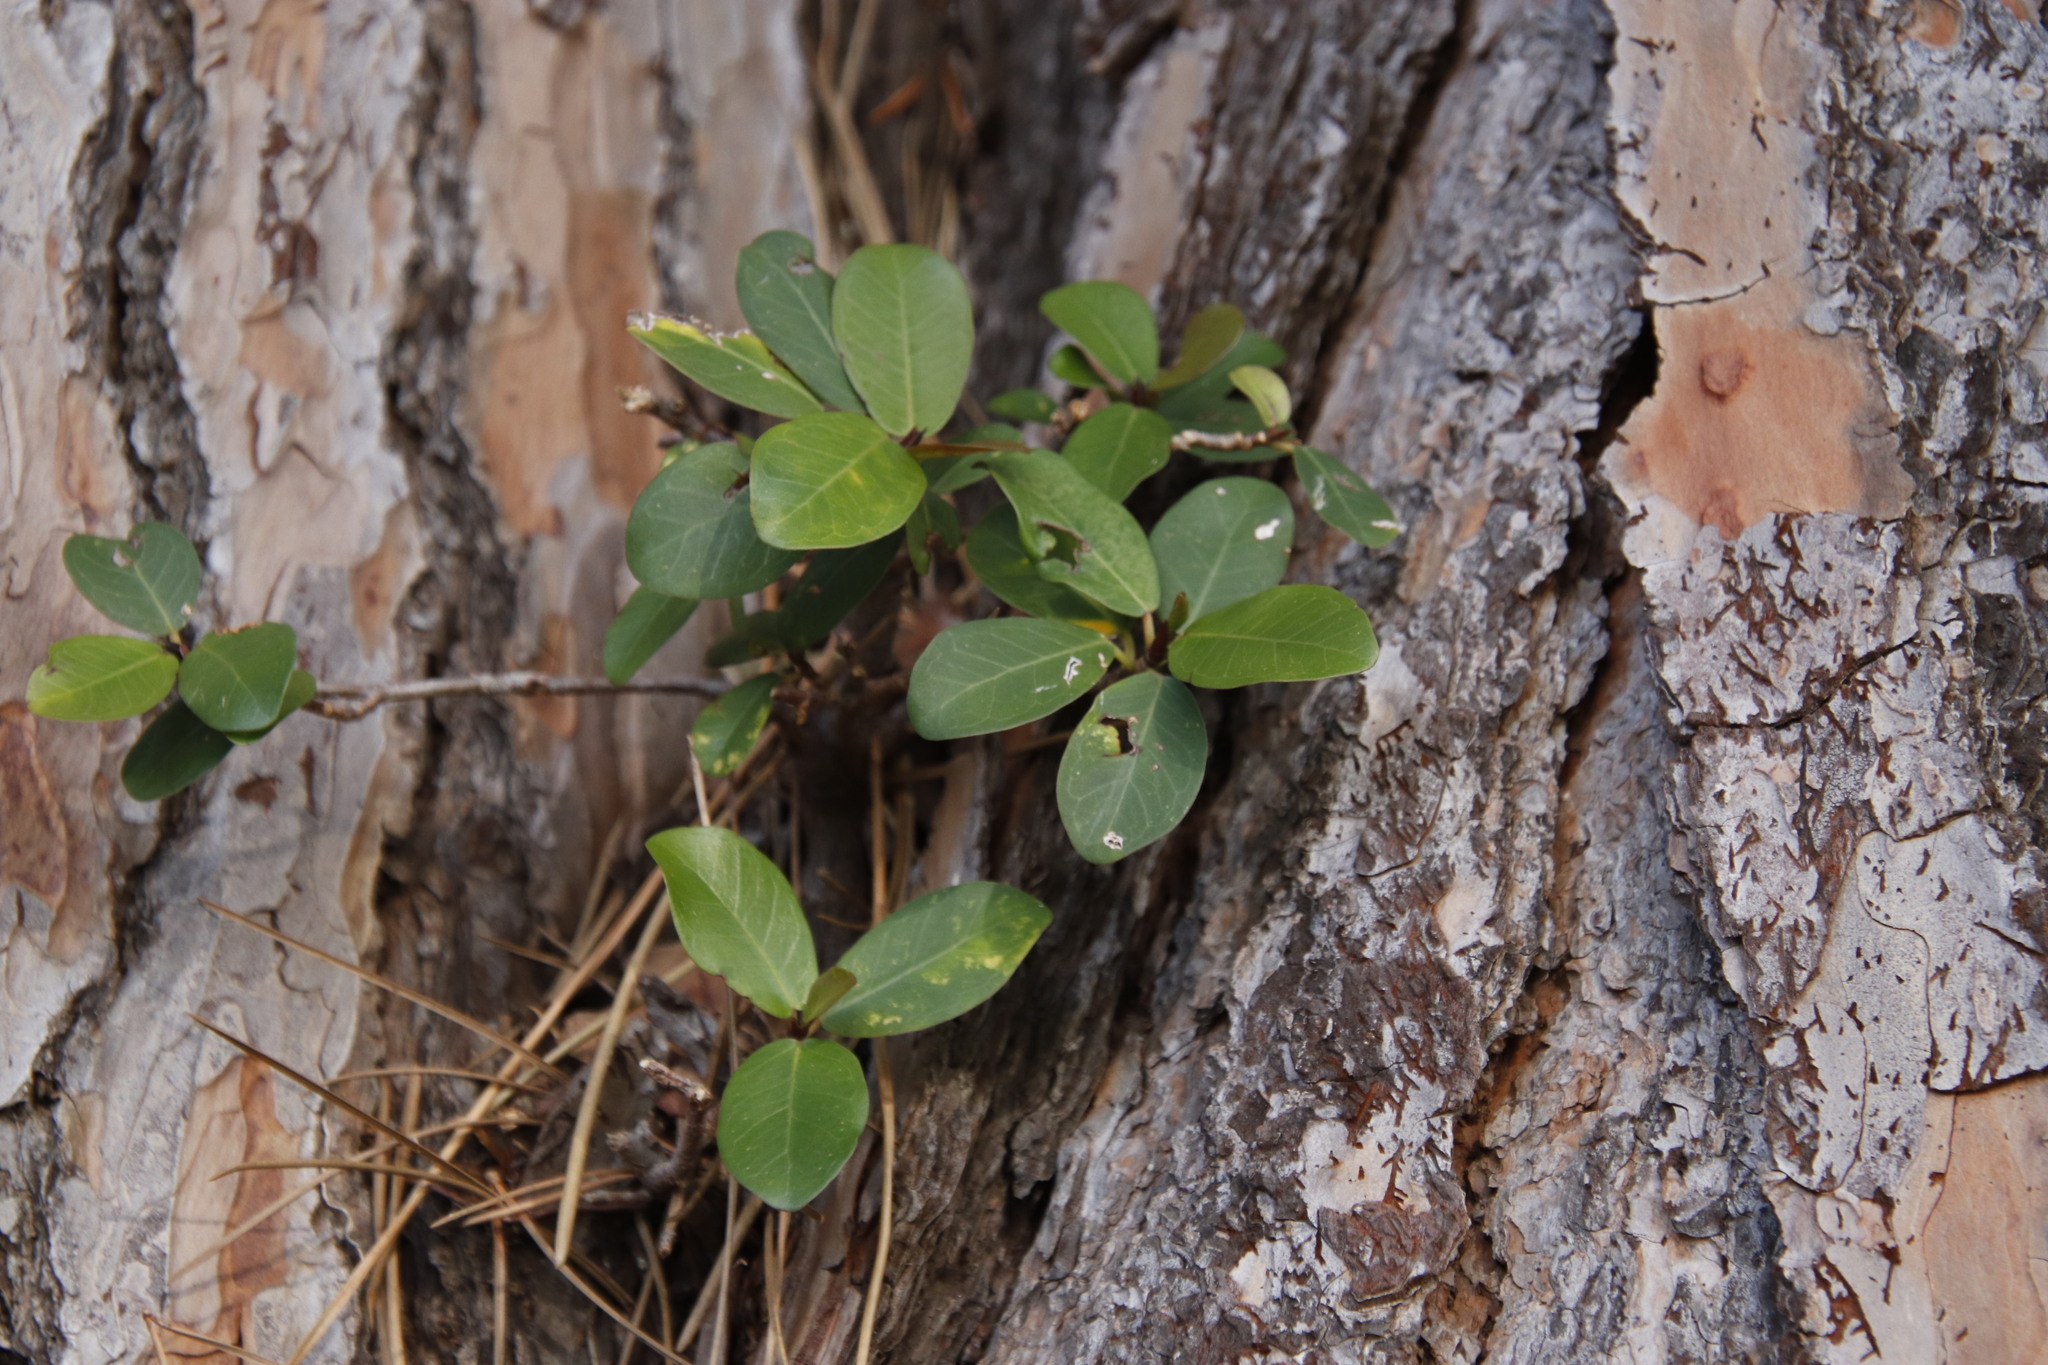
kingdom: Plantae
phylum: Tracheophyta
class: Magnoliopsida
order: Rosales
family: Moraceae
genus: Ficus
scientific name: Ficus thonningii
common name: Fig
